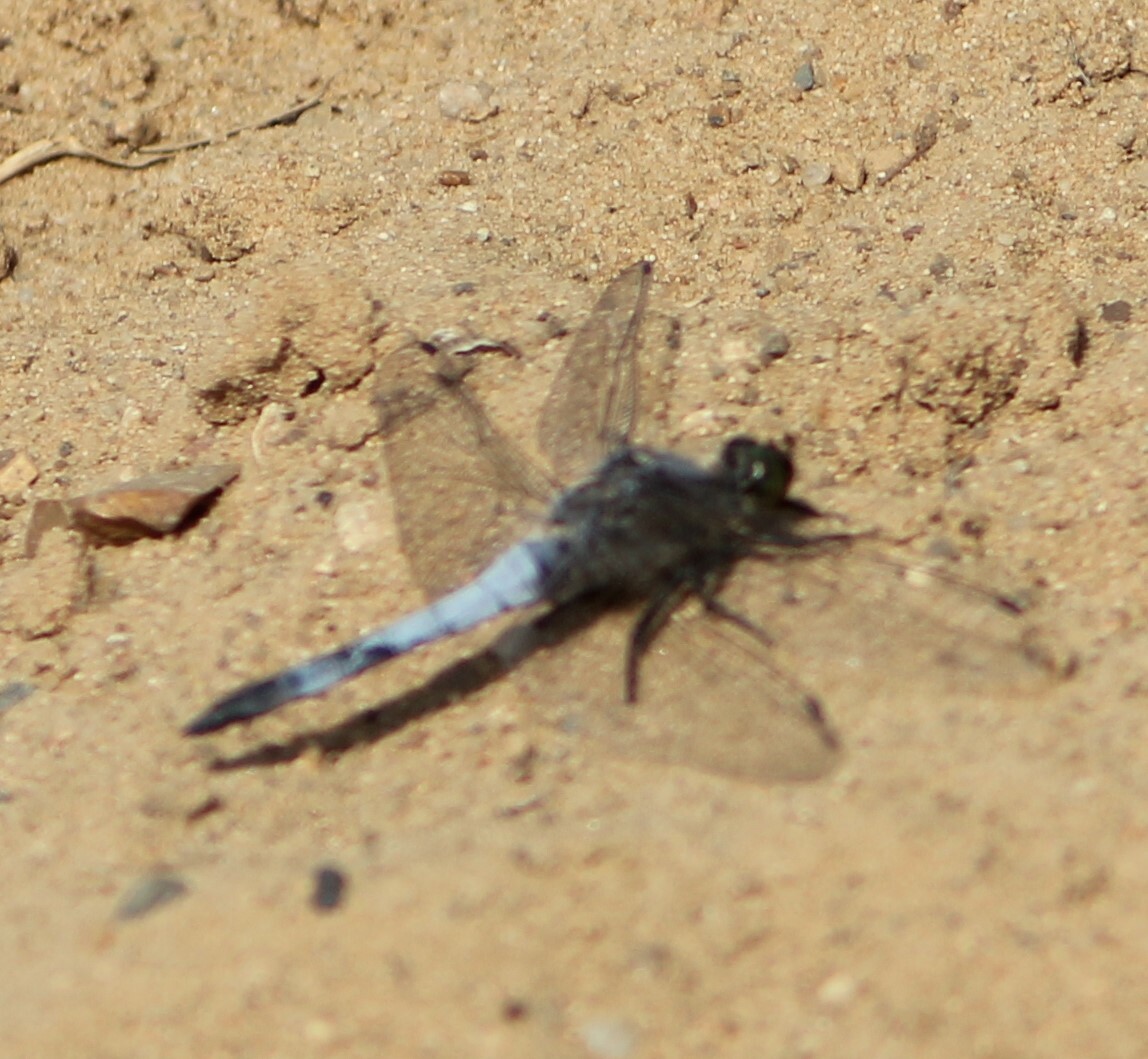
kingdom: Animalia
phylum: Arthropoda
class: Insecta
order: Odonata
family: Libellulidae
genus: Orthetrum
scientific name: Orthetrum cancellatum
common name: Black-tailed skimmer
